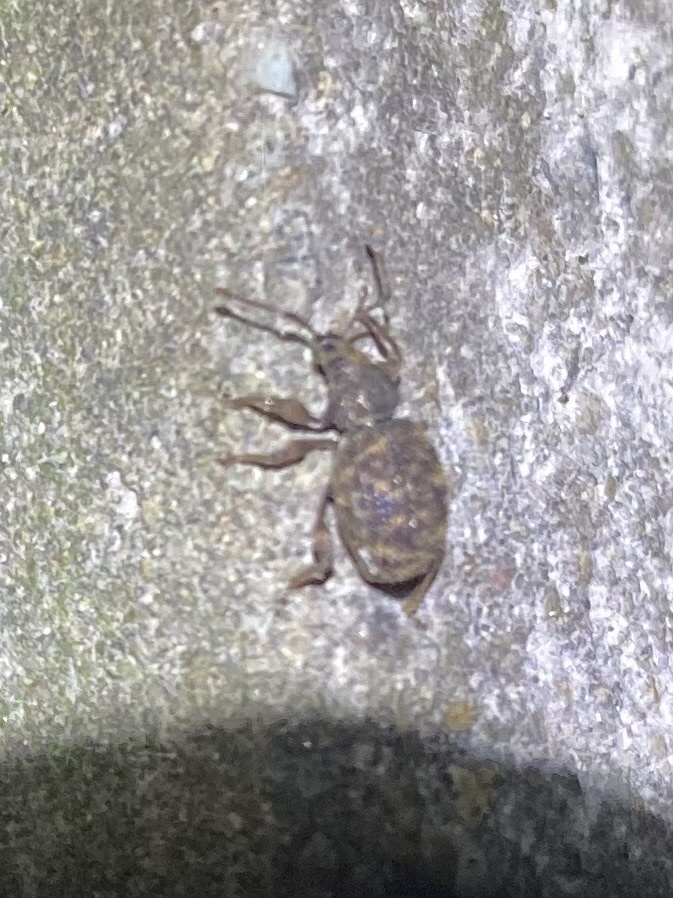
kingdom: Animalia
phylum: Arthropoda
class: Insecta
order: Coleoptera
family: Curculionidae
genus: Otiorhynchus
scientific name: Otiorhynchus crataegi
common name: Privet weevil
